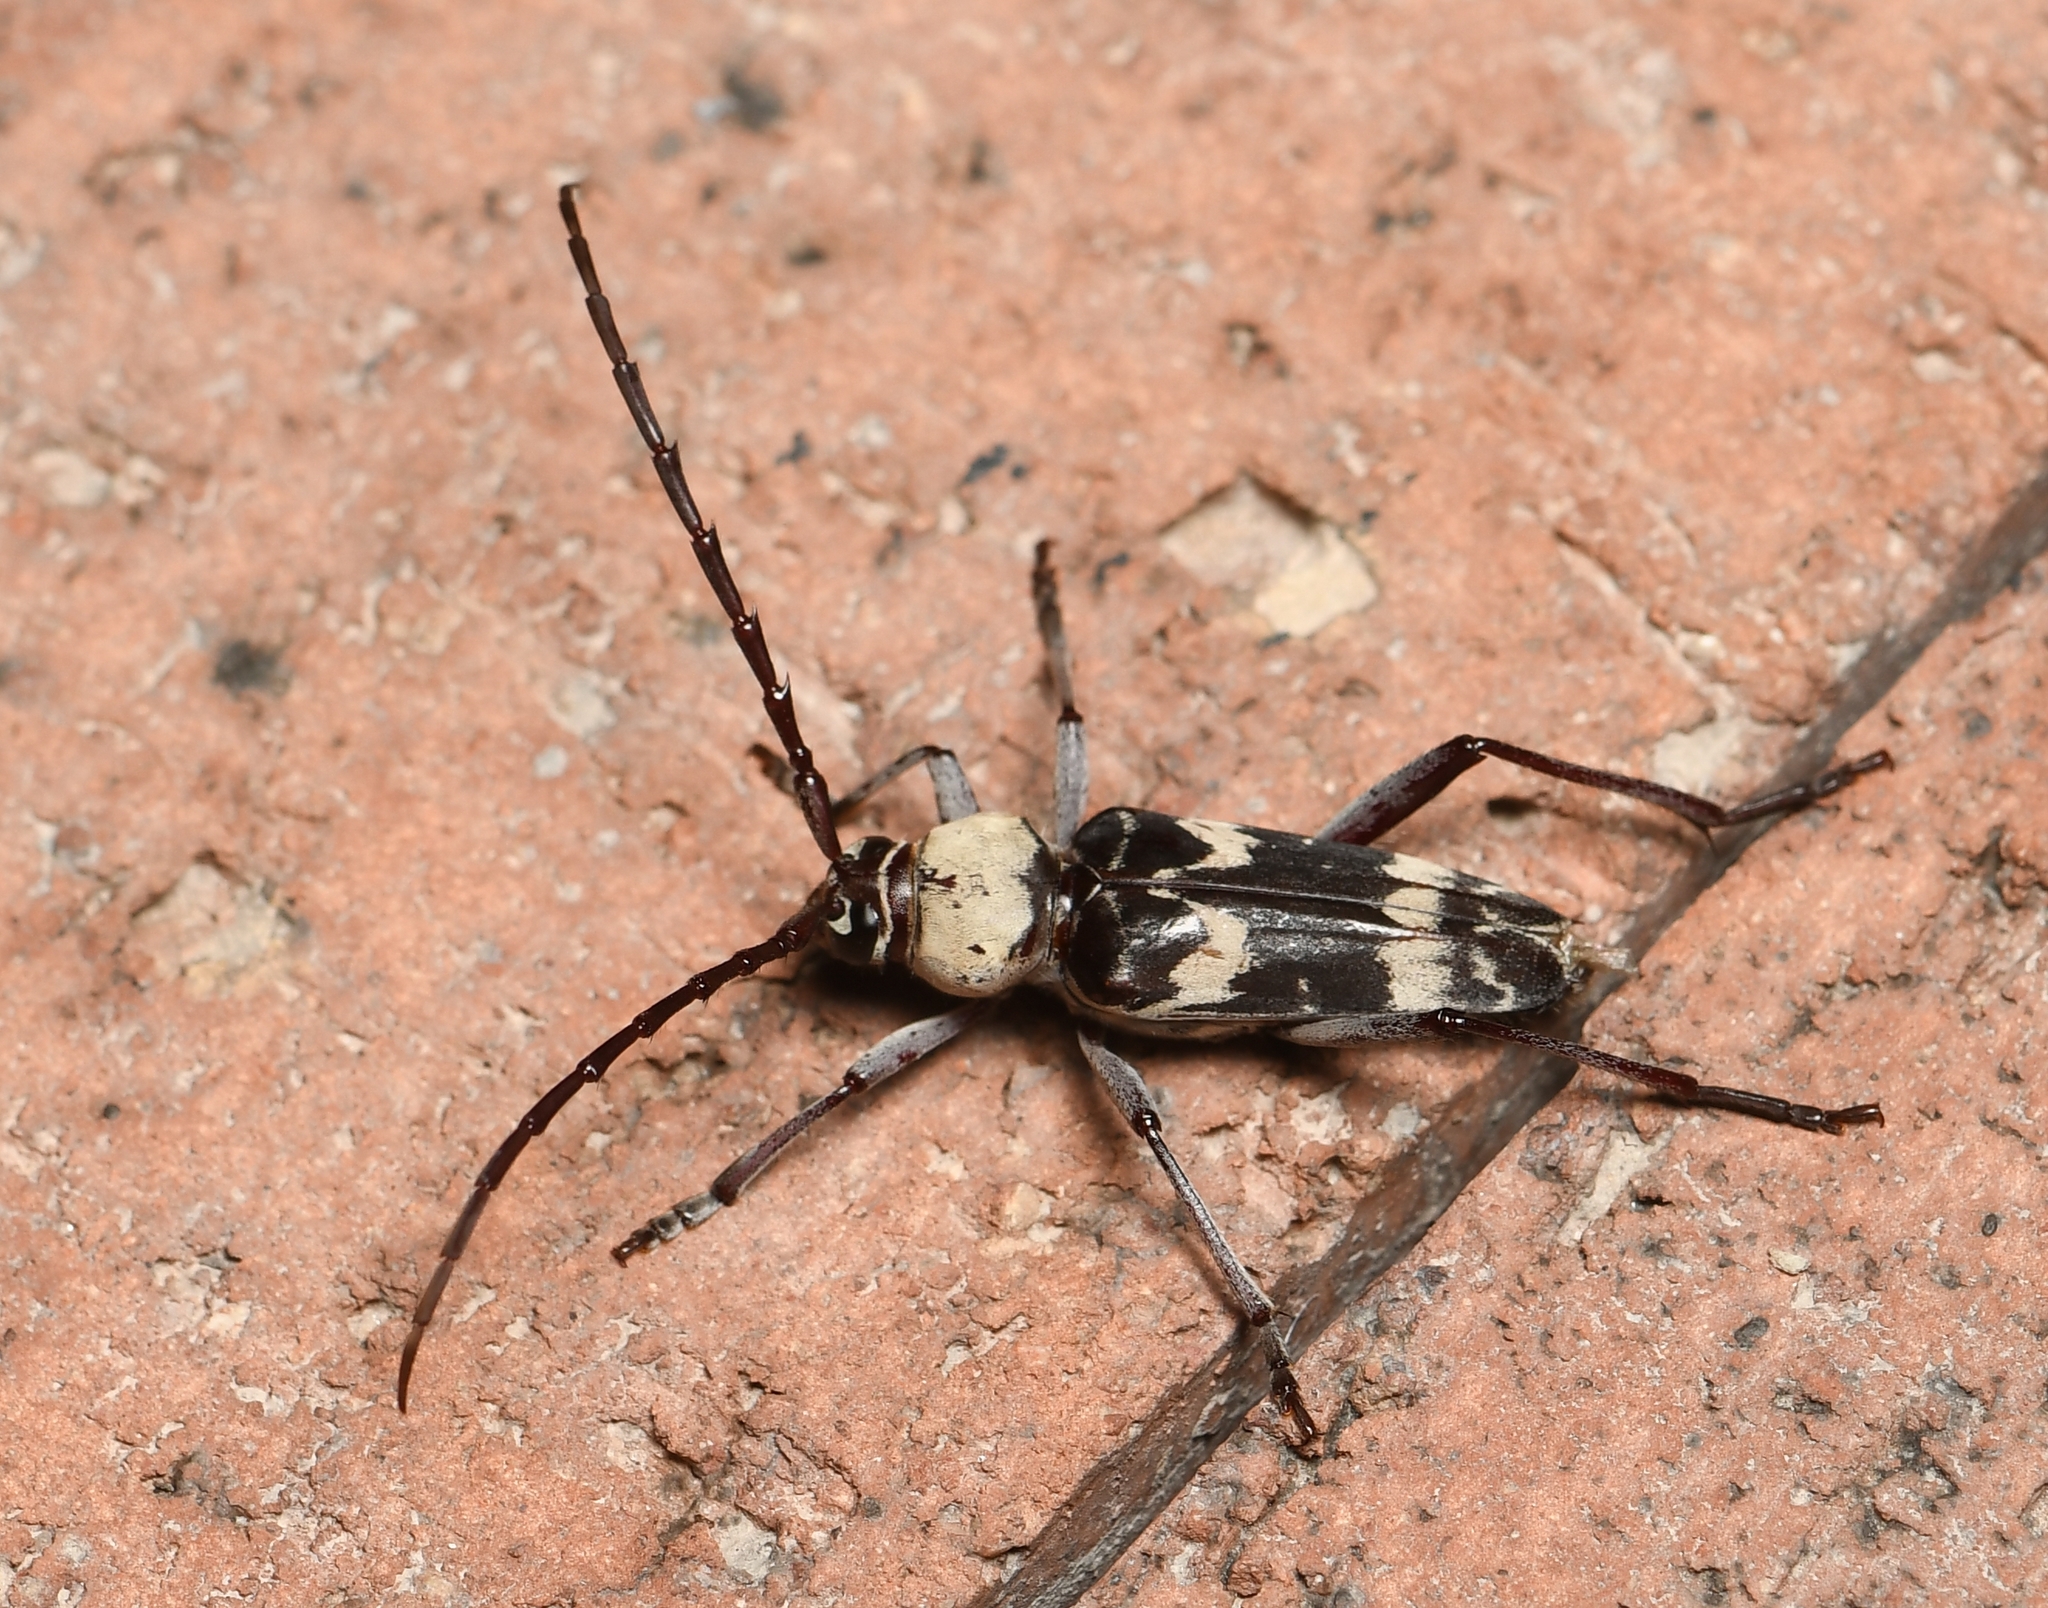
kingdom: Animalia
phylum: Arthropoda
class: Insecta
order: Coleoptera
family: Cerambycidae
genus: Megacyllene
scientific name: Megacyllene antennata
